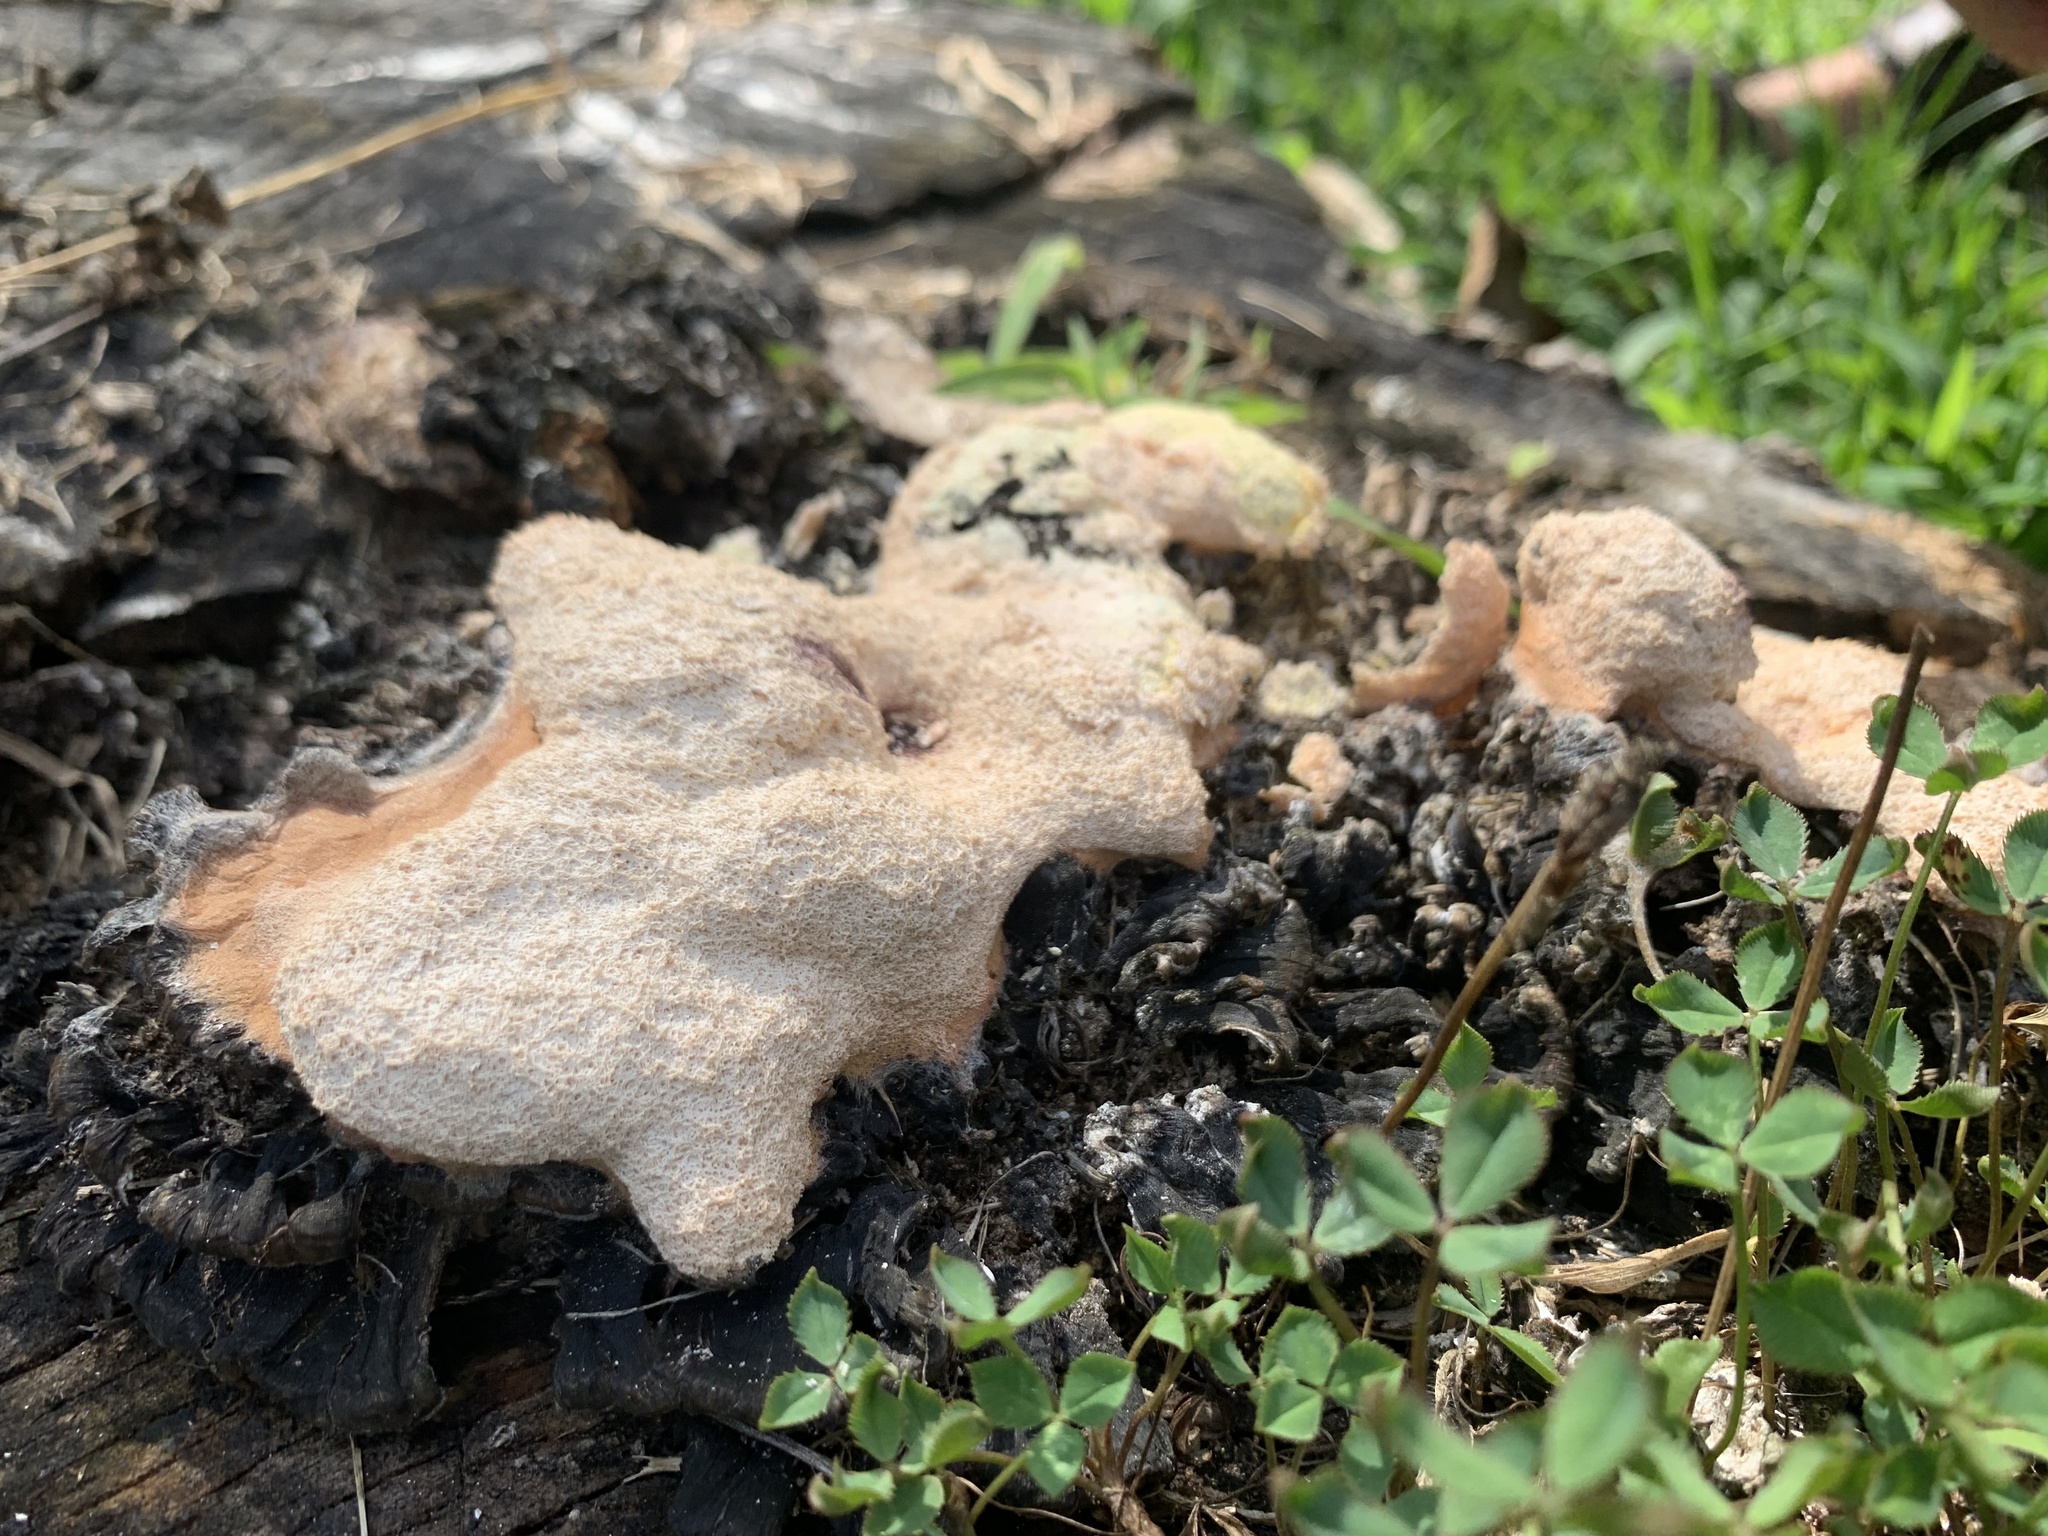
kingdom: Protozoa
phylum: Mycetozoa
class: Myxomycetes
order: Physarales
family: Physaraceae
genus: Fuligo
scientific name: Fuligo septica
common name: Dog vomit slime mold
